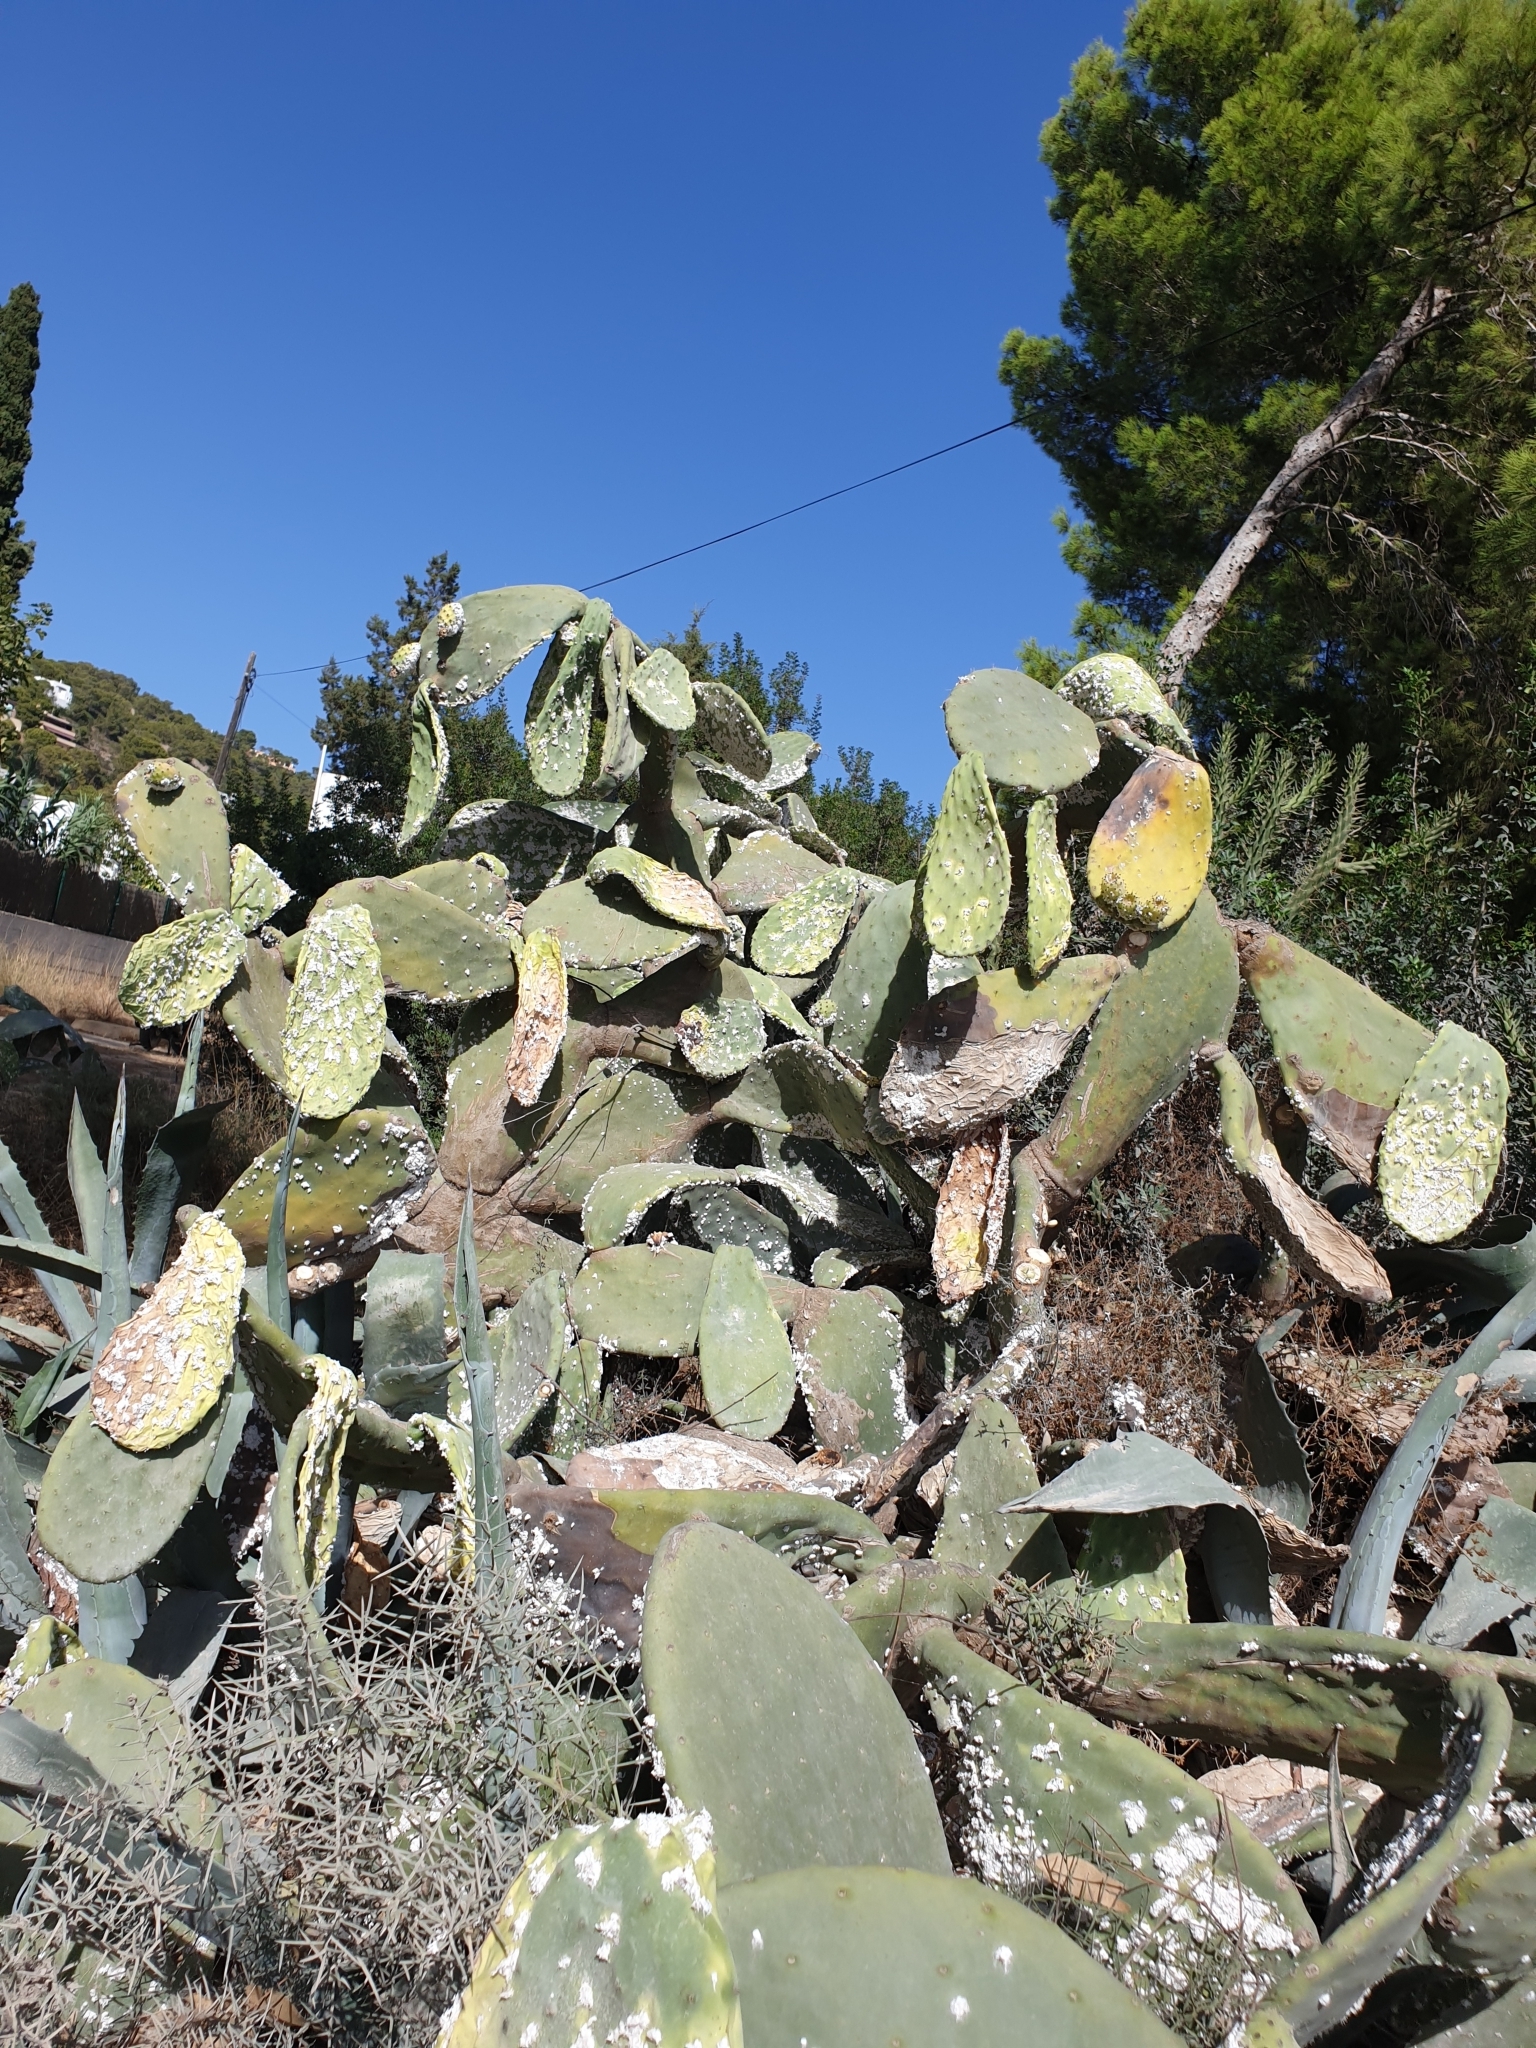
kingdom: Plantae
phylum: Tracheophyta
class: Magnoliopsida
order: Caryophyllales
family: Cactaceae
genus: Opuntia
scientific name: Opuntia ficus-indica
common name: Barbary fig
